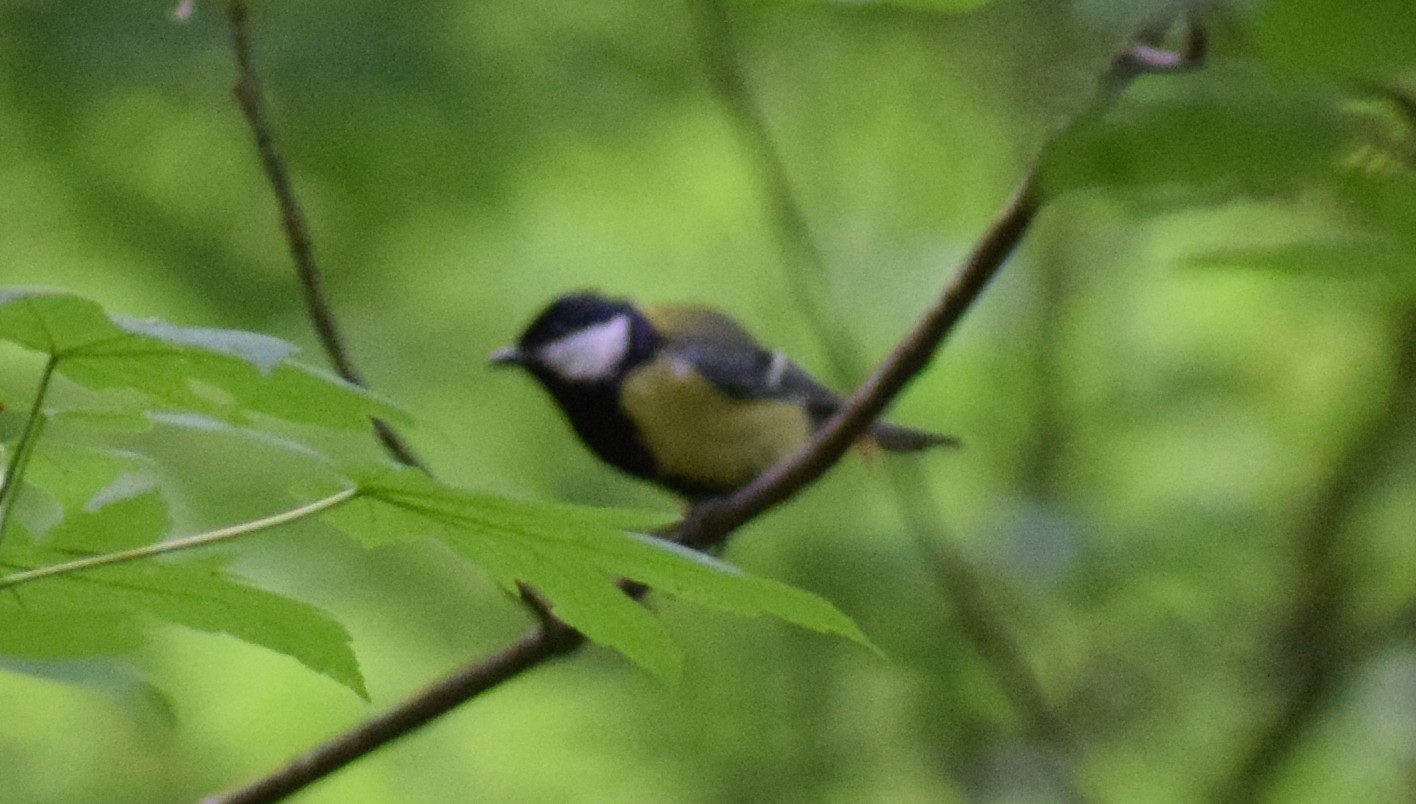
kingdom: Animalia
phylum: Chordata
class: Aves
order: Passeriformes
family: Paridae
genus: Parus
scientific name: Parus major
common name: Great tit
